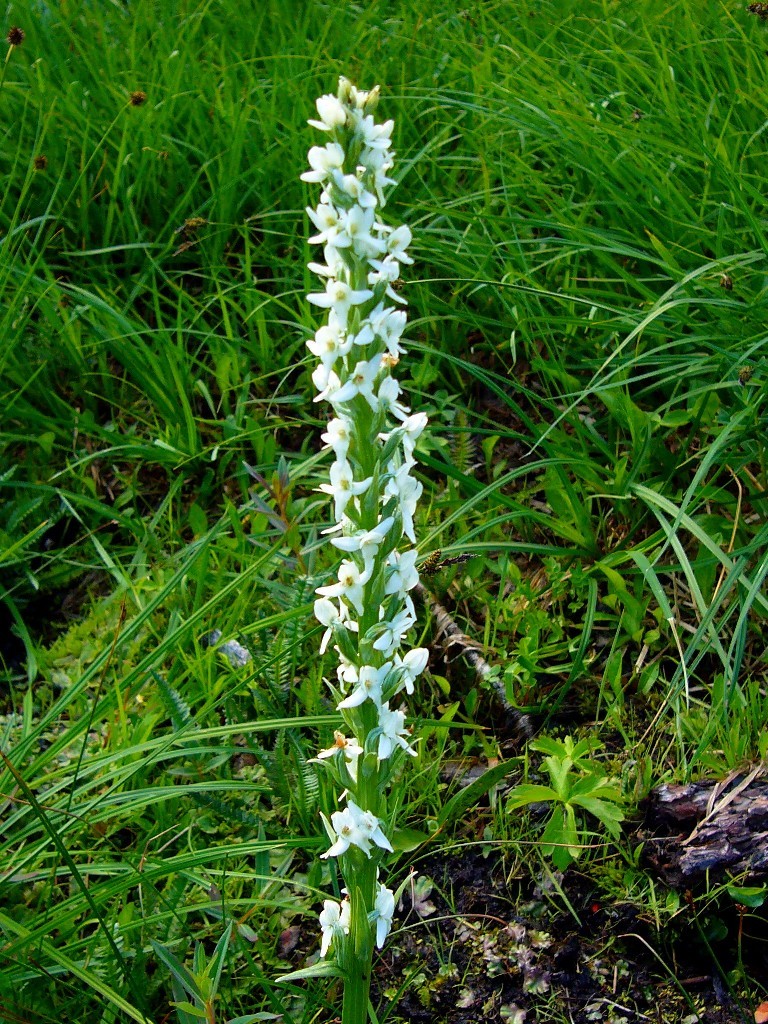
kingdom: Plantae
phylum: Tracheophyta
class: Liliopsida
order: Asparagales
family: Orchidaceae
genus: Platanthera
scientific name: Platanthera dilatata
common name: Bog candles
